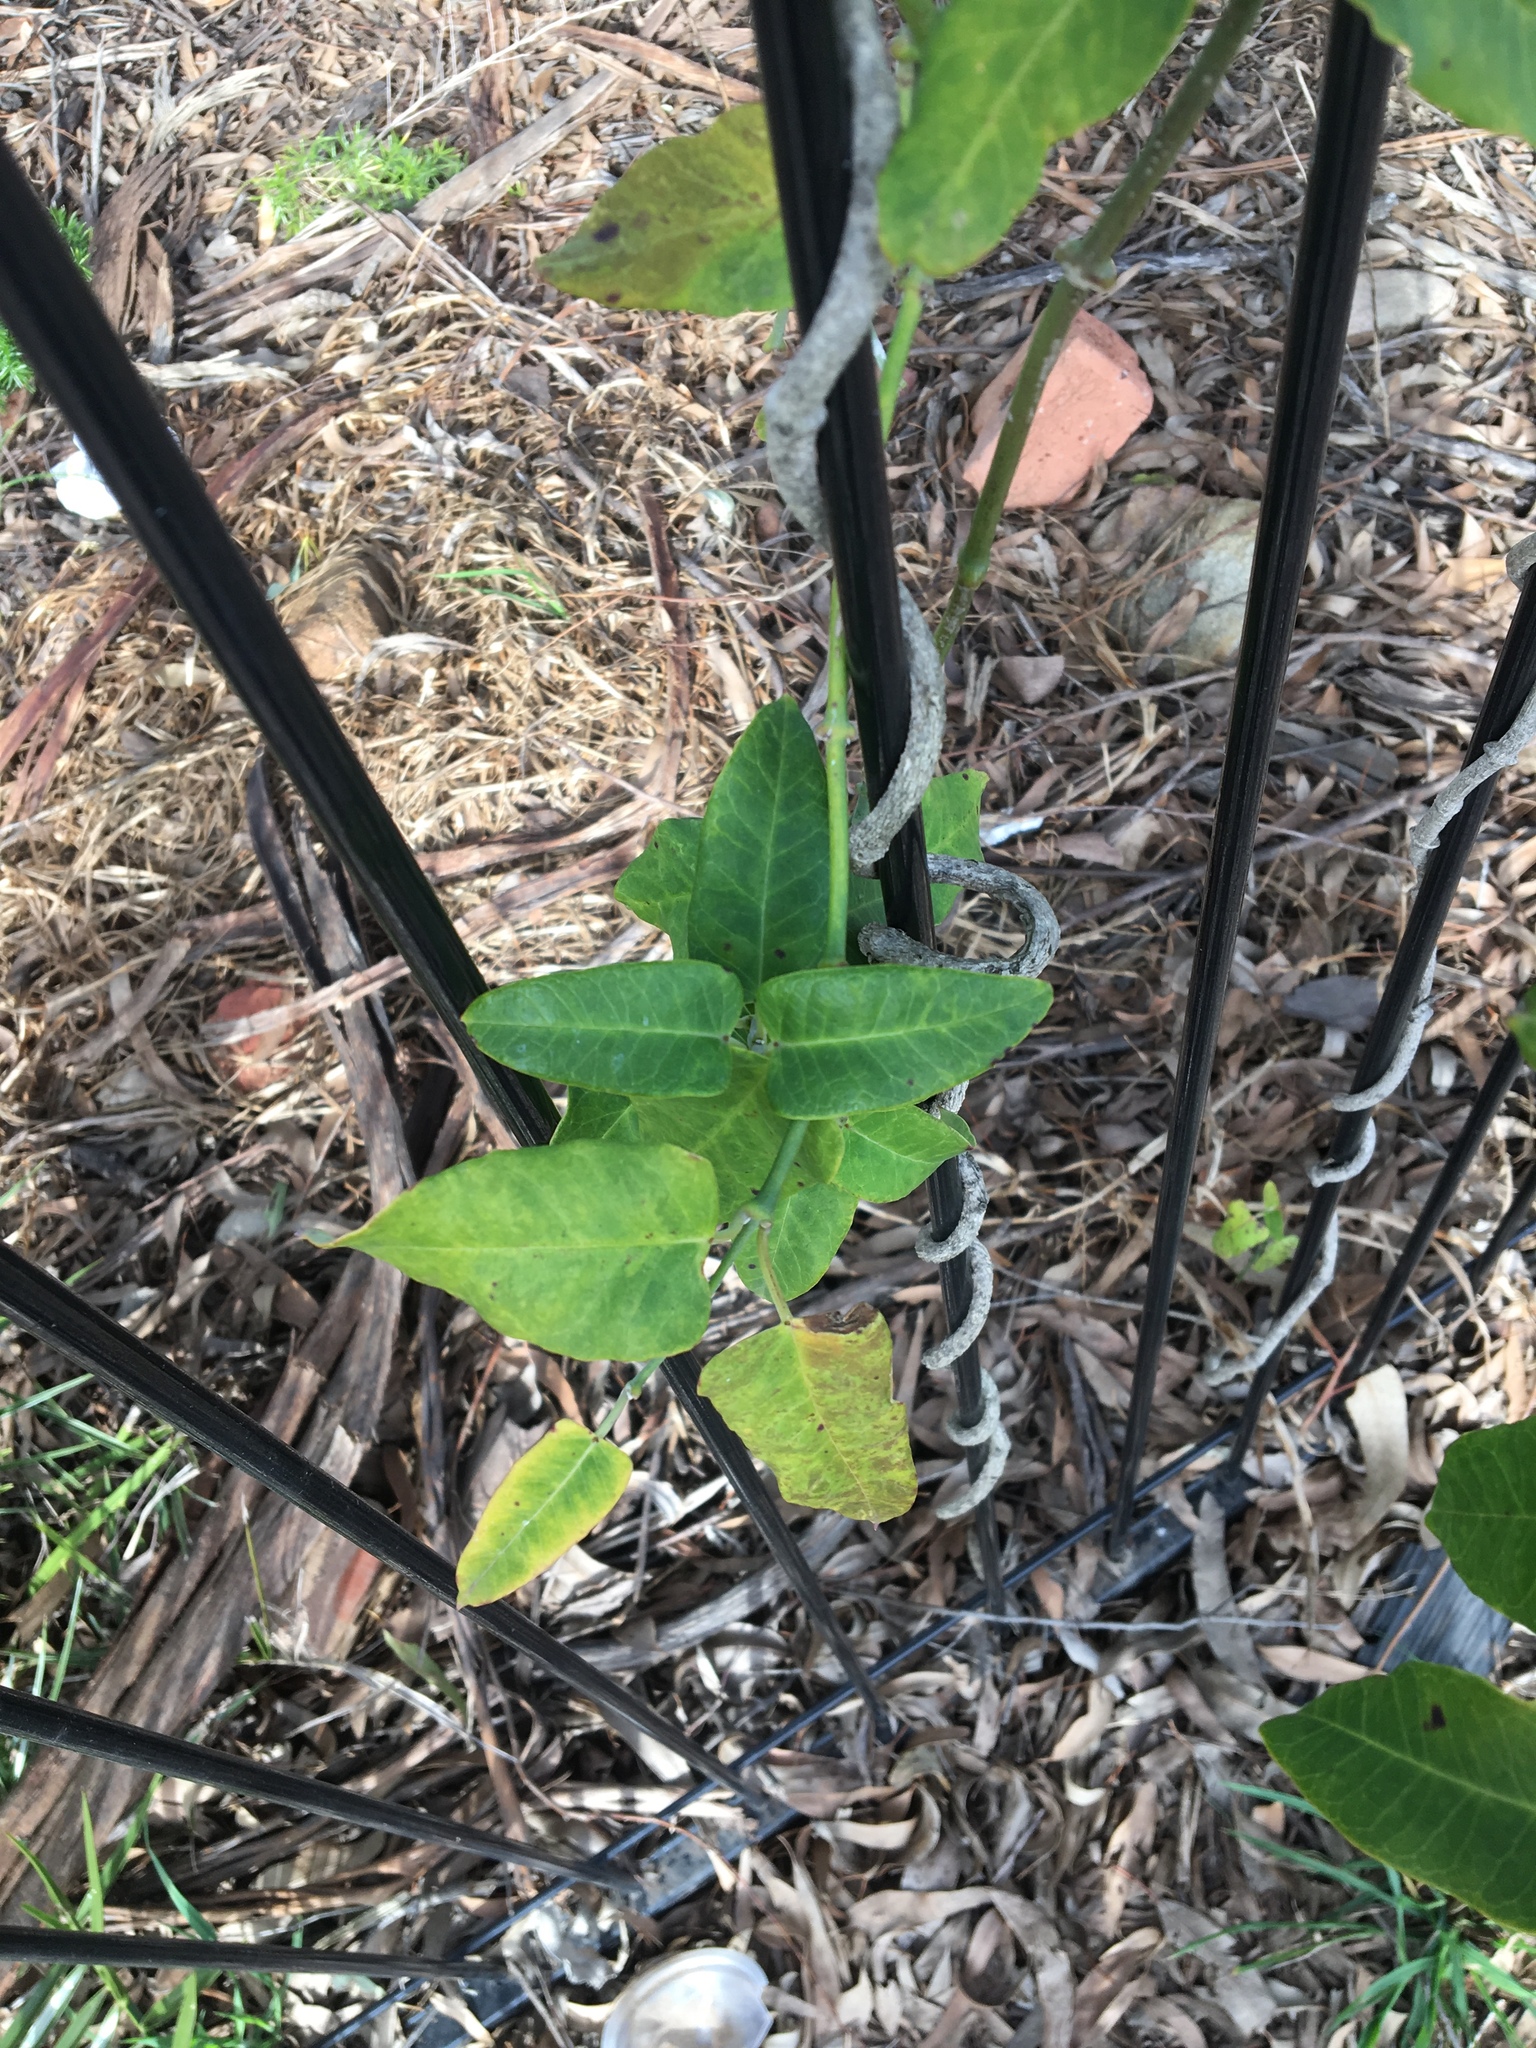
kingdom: Plantae
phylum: Tracheophyta
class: Magnoliopsida
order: Gentianales
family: Apocynaceae
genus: Araujia
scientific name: Araujia sericifera
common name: White bladderflower
